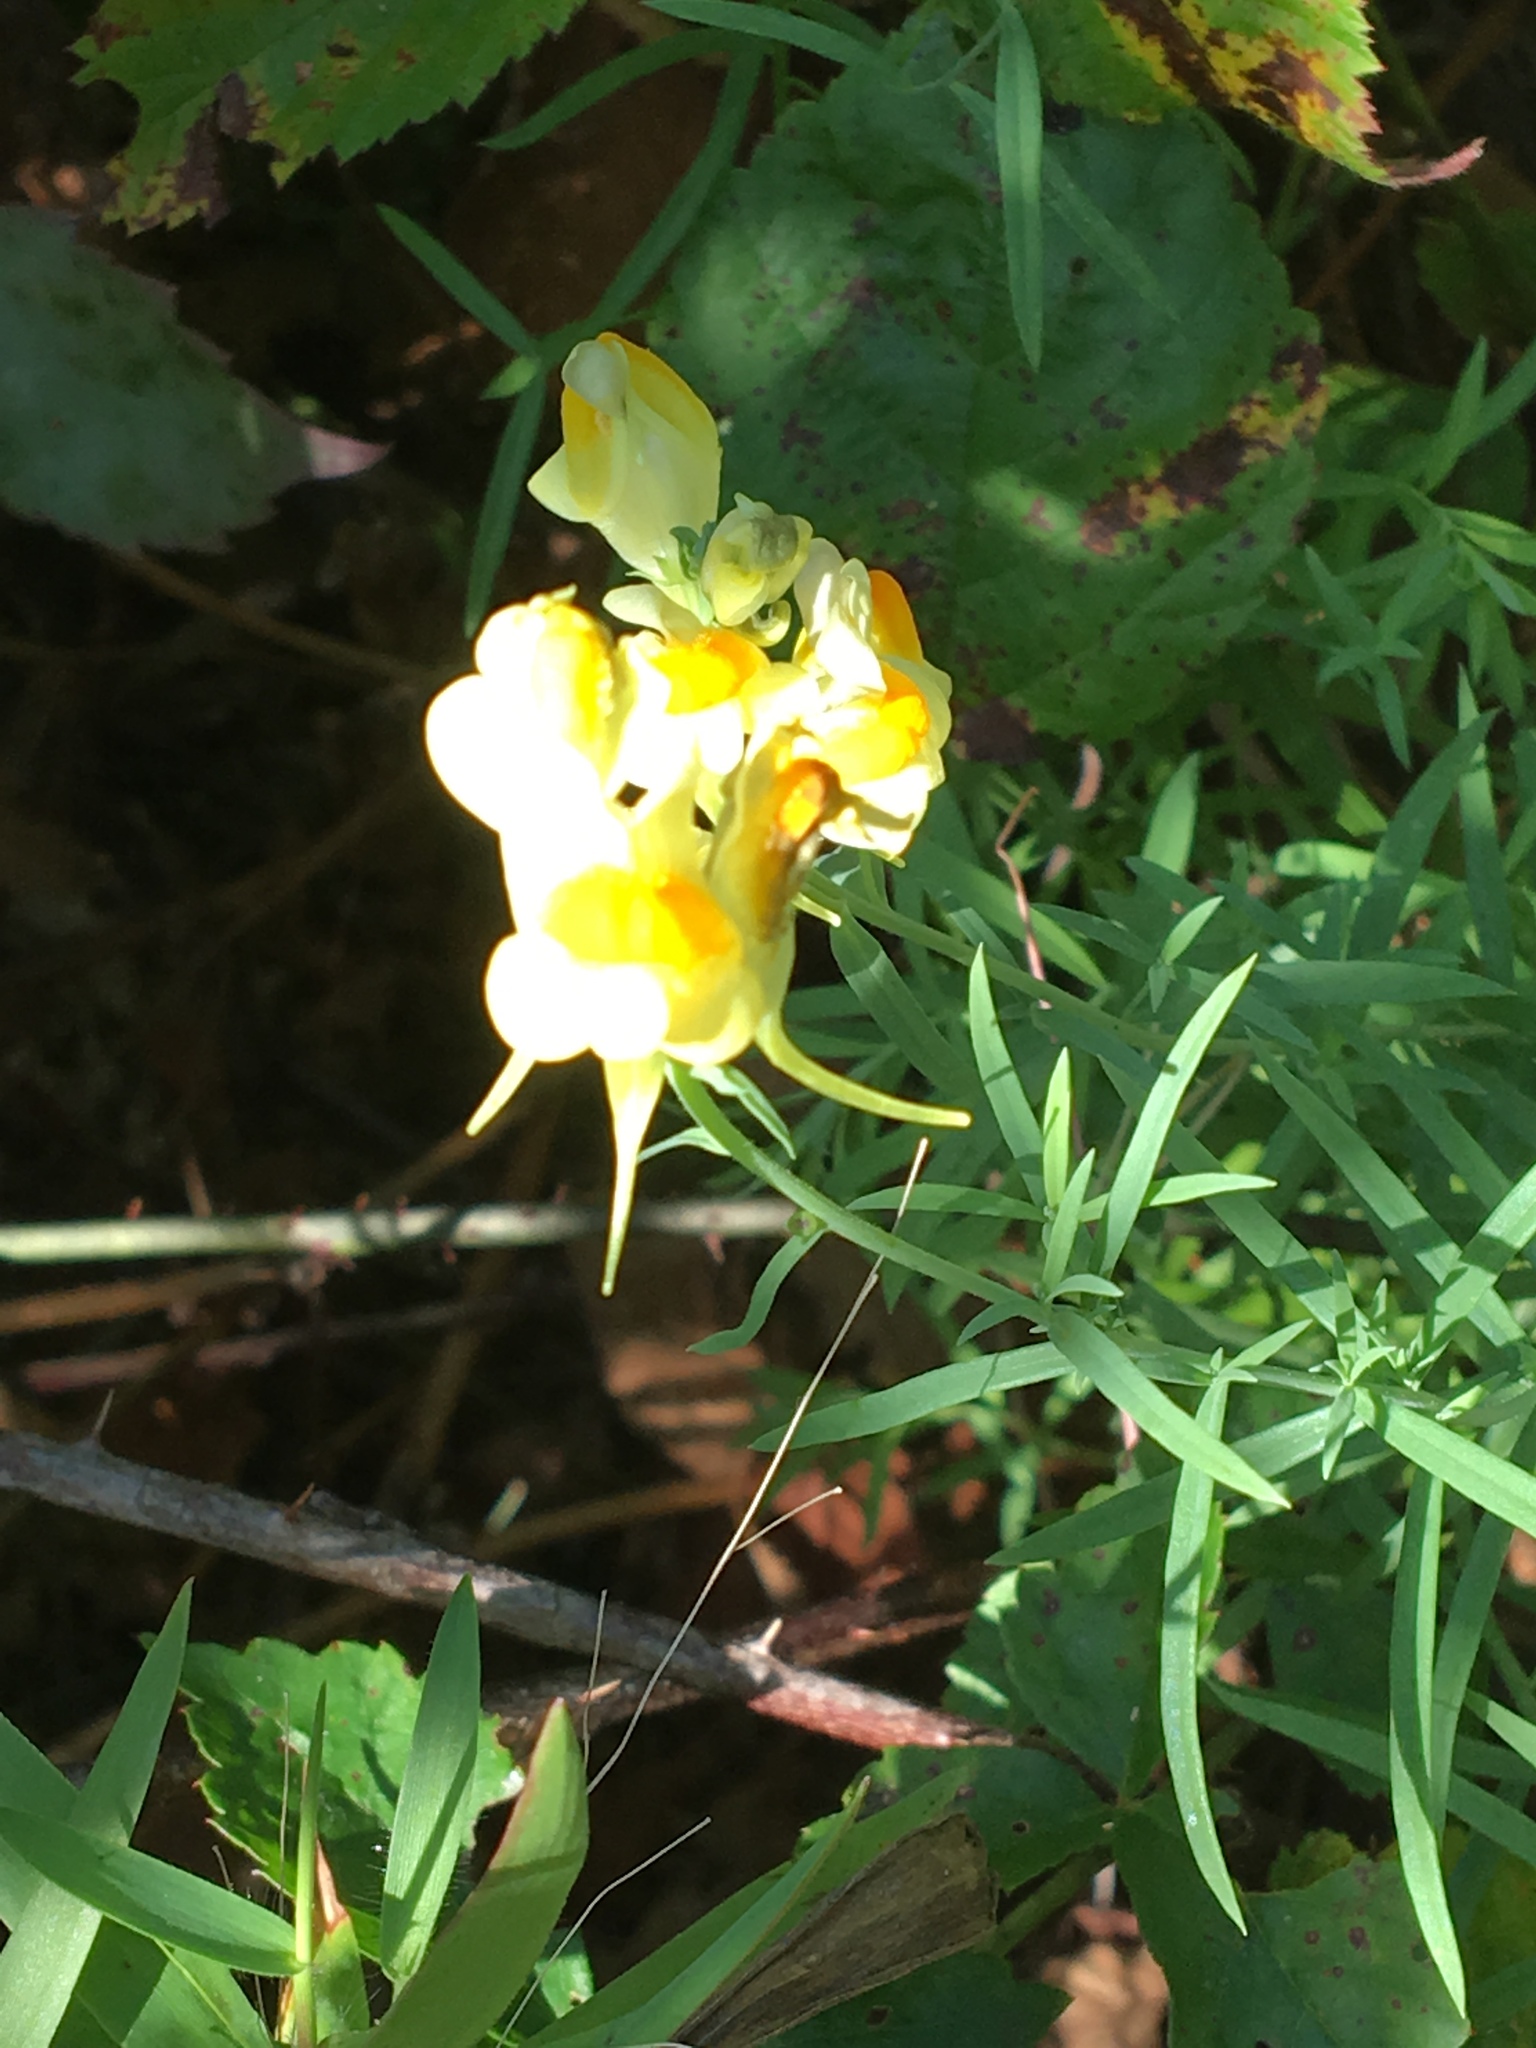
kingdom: Plantae
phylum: Tracheophyta
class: Magnoliopsida
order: Lamiales
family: Plantaginaceae
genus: Linaria
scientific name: Linaria vulgaris
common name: Butter and eggs
